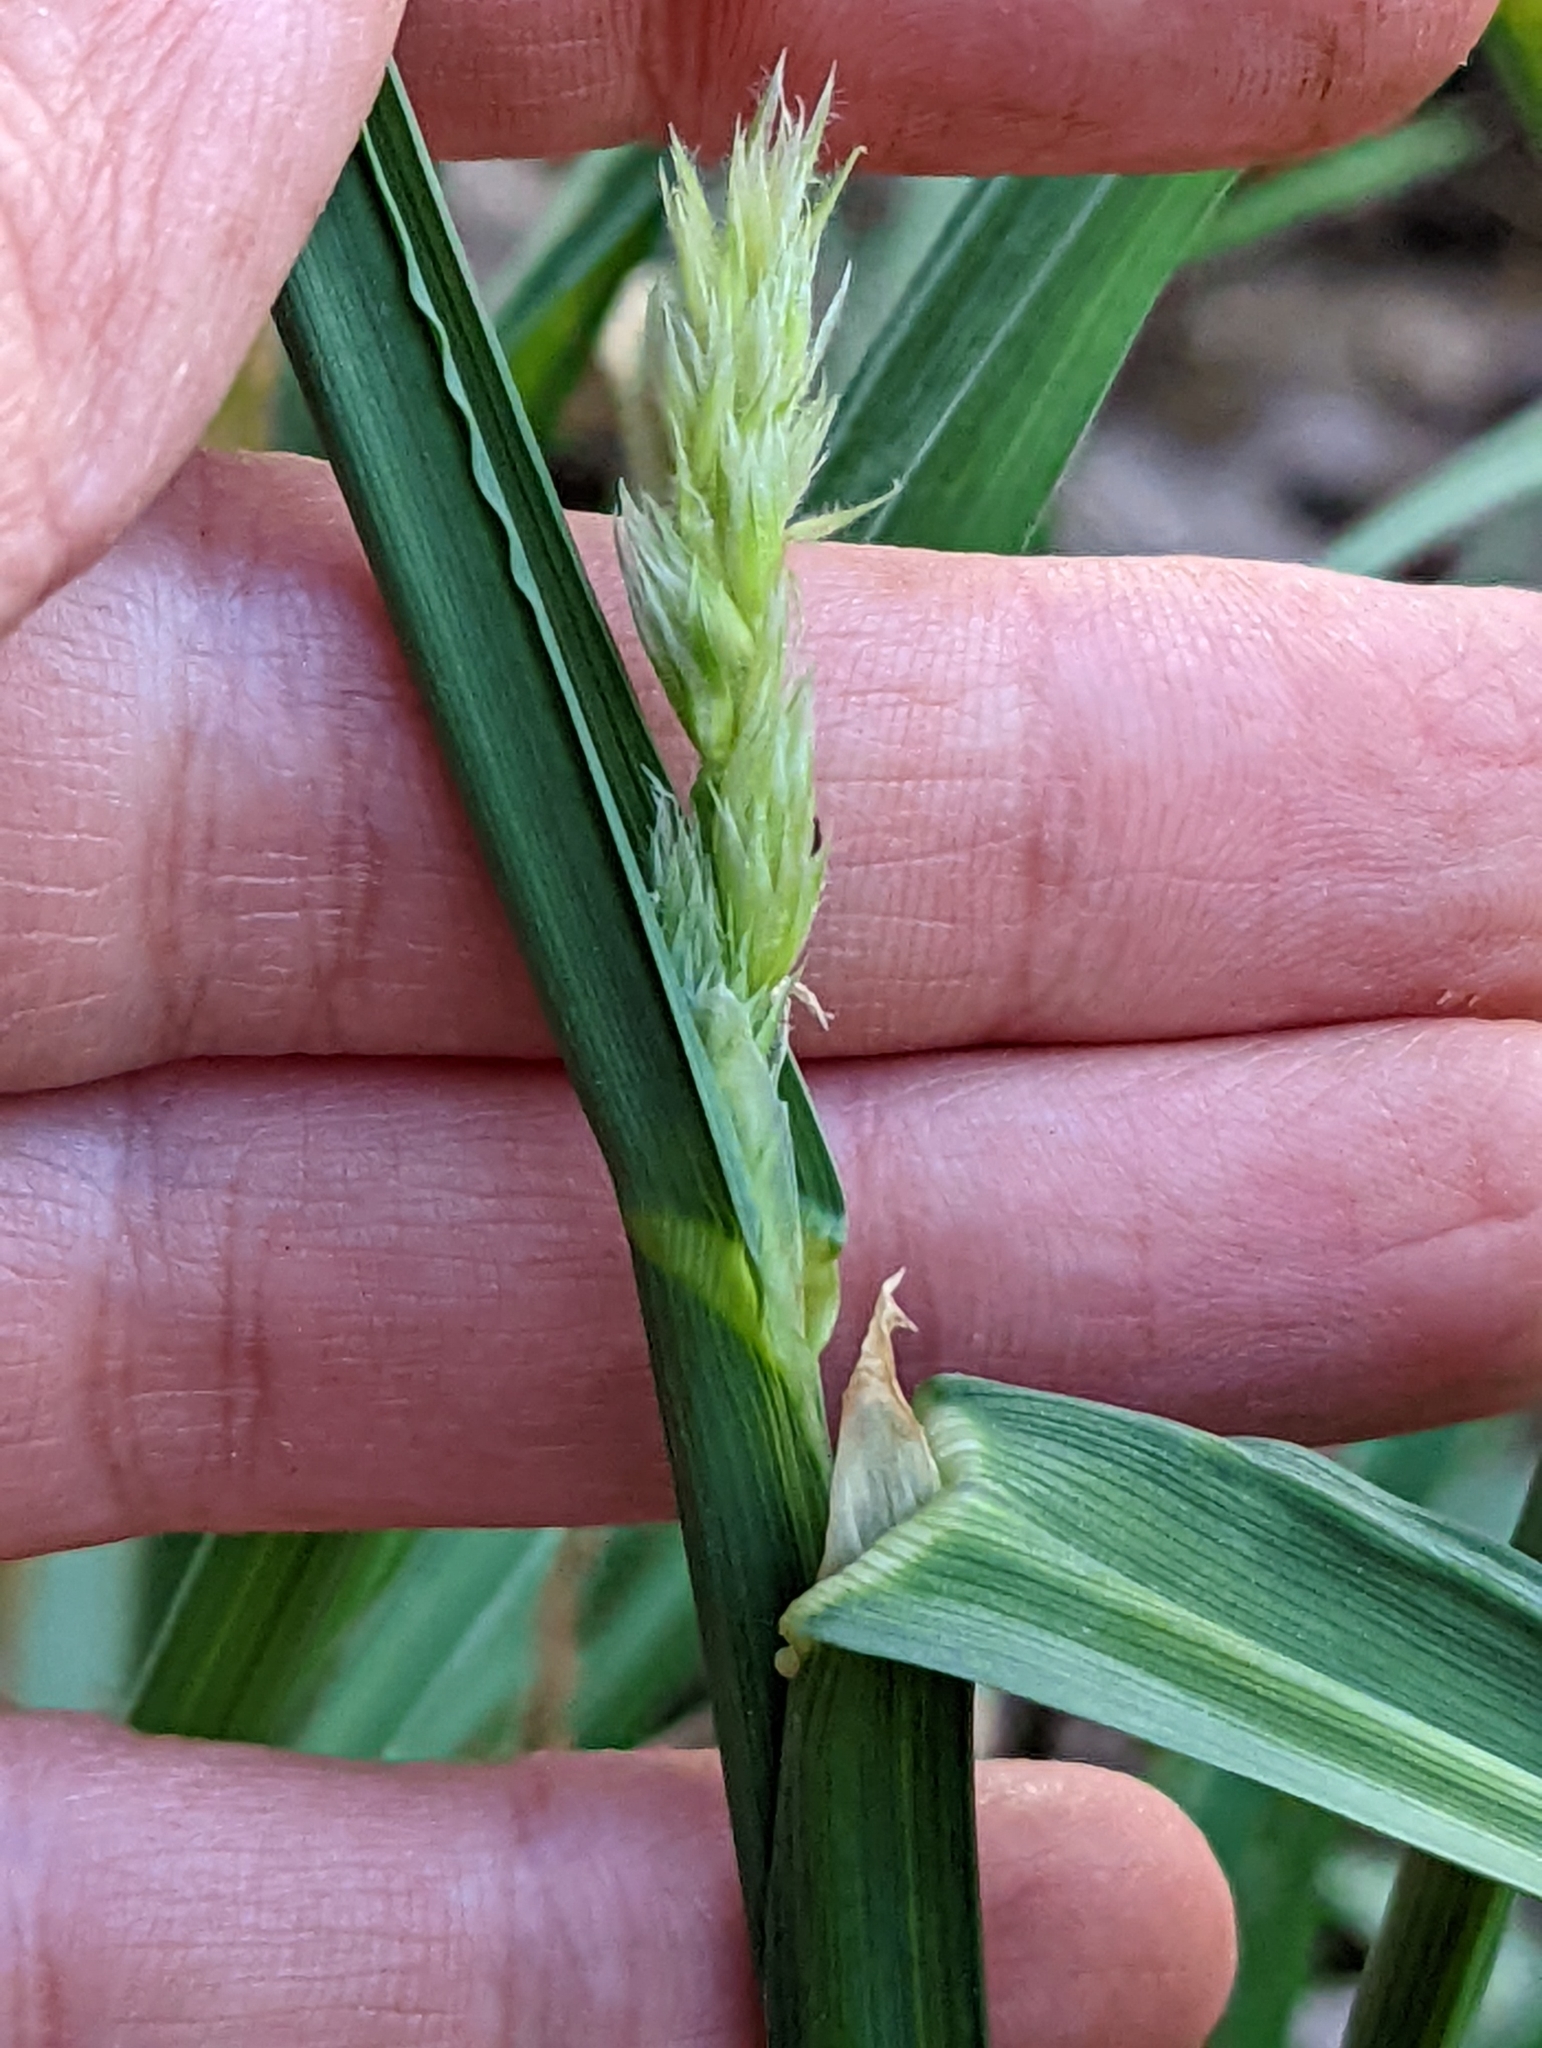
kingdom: Plantae
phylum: Tracheophyta
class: Liliopsida
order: Poales
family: Poaceae
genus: Phalaris
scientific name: Phalaris arundinacea
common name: Reed canary-grass
